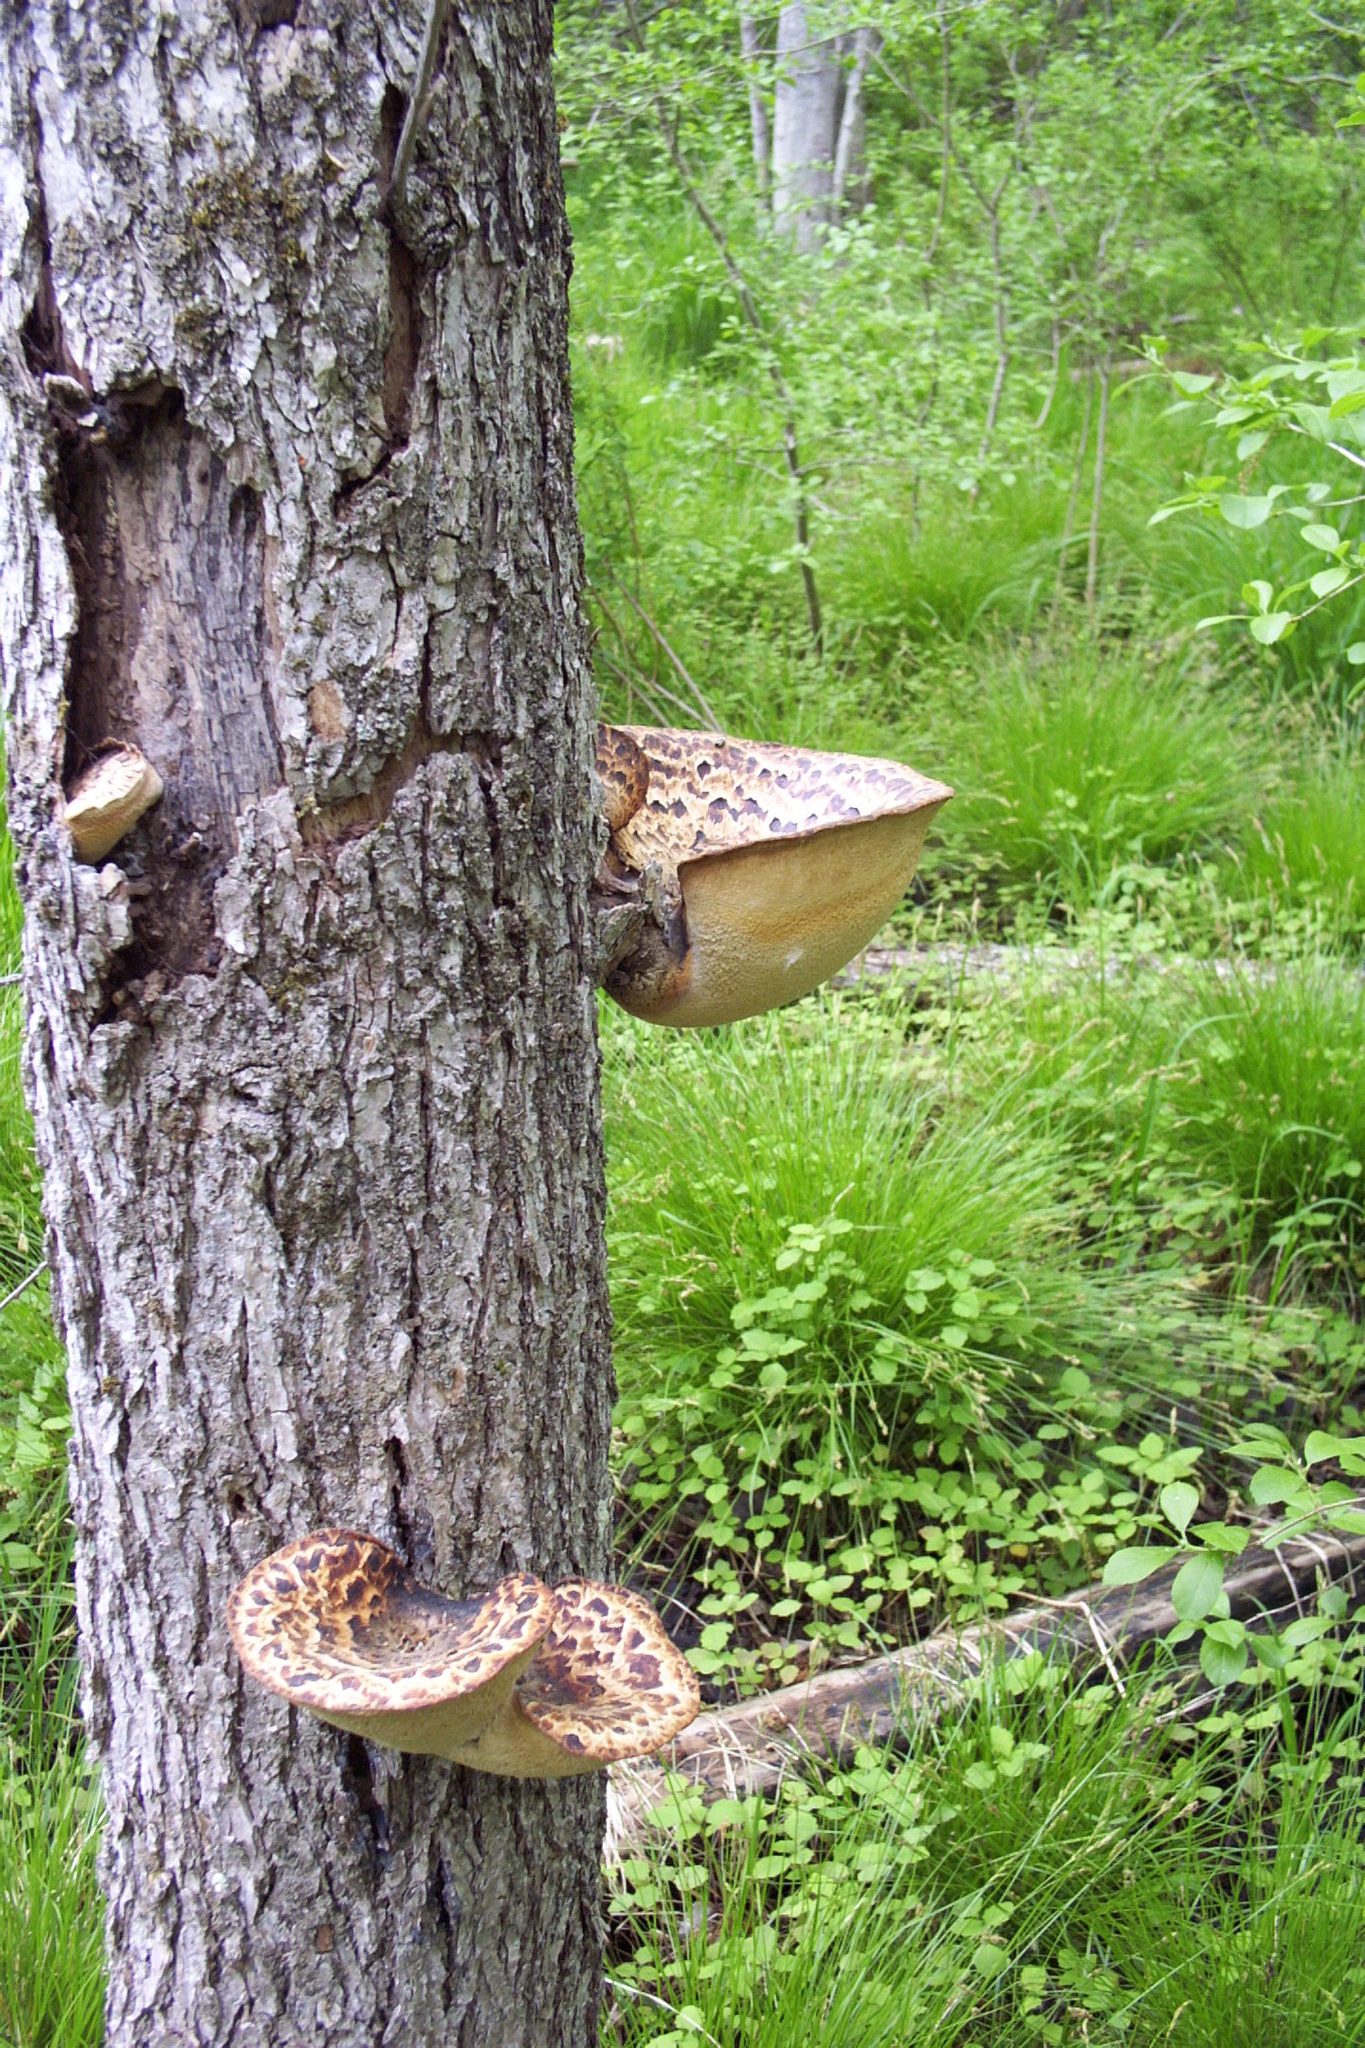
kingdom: Fungi
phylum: Basidiomycota
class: Agaricomycetes
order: Polyporales
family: Polyporaceae
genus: Cerioporus
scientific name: Cerioporus squamosus
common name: Dryad's saddle
